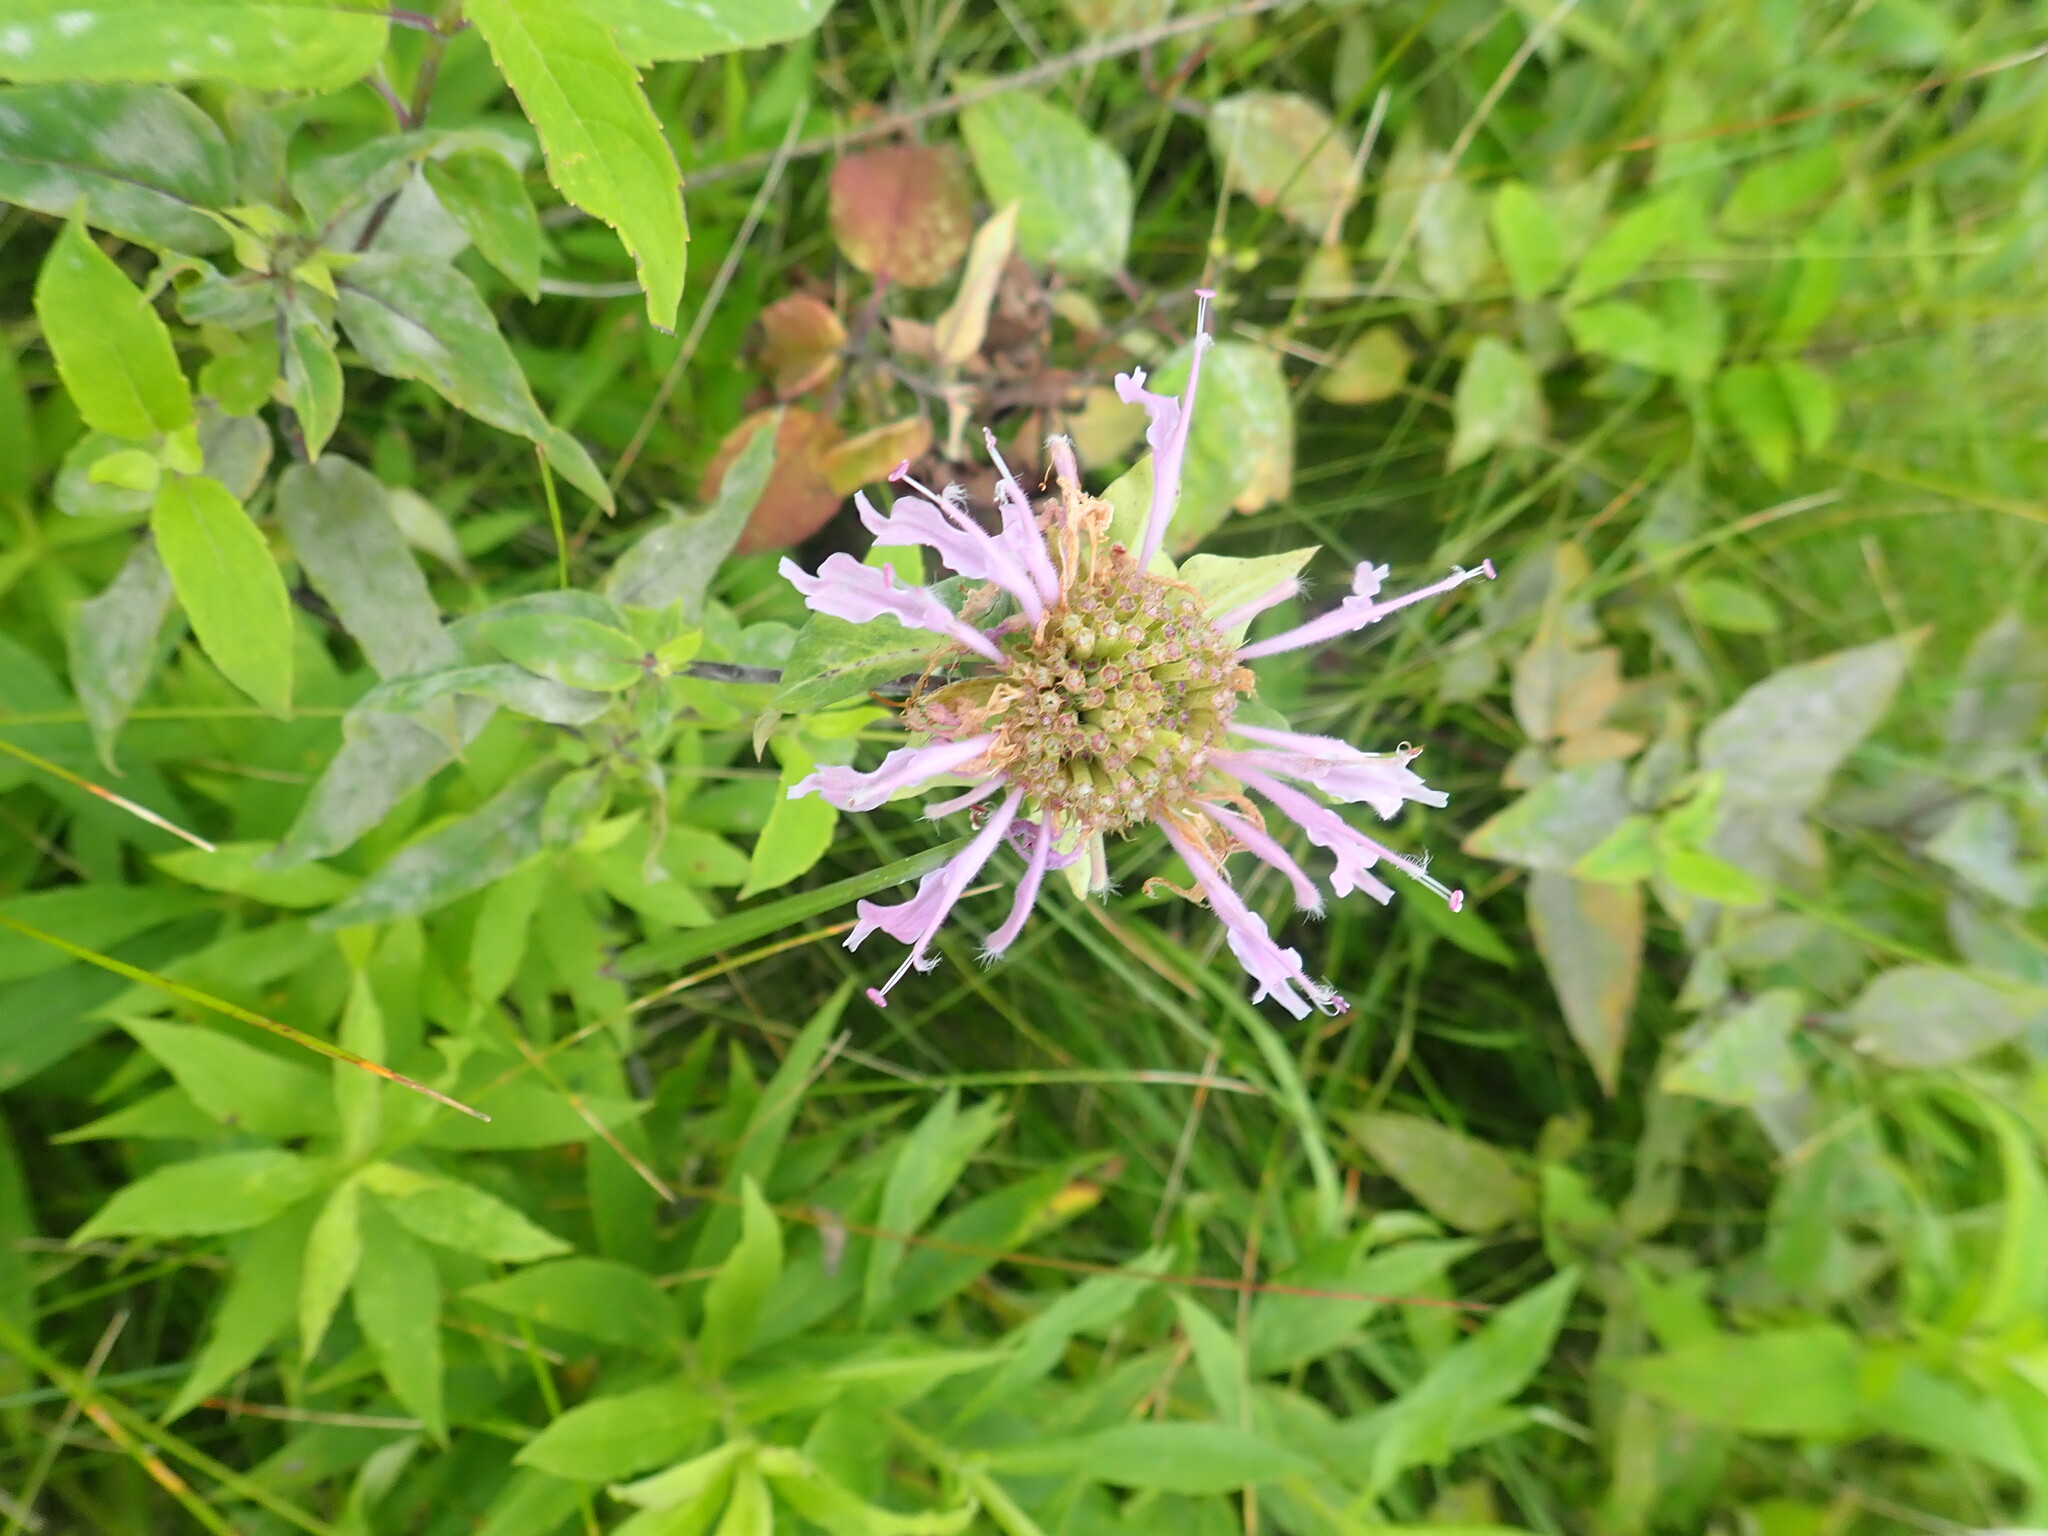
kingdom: Plantae
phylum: Tracheophyta
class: Magnoliopsida
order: Lamiales
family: Lamiaceae
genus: Monarda
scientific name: Monarda fistulosa
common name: Purple beebalm
